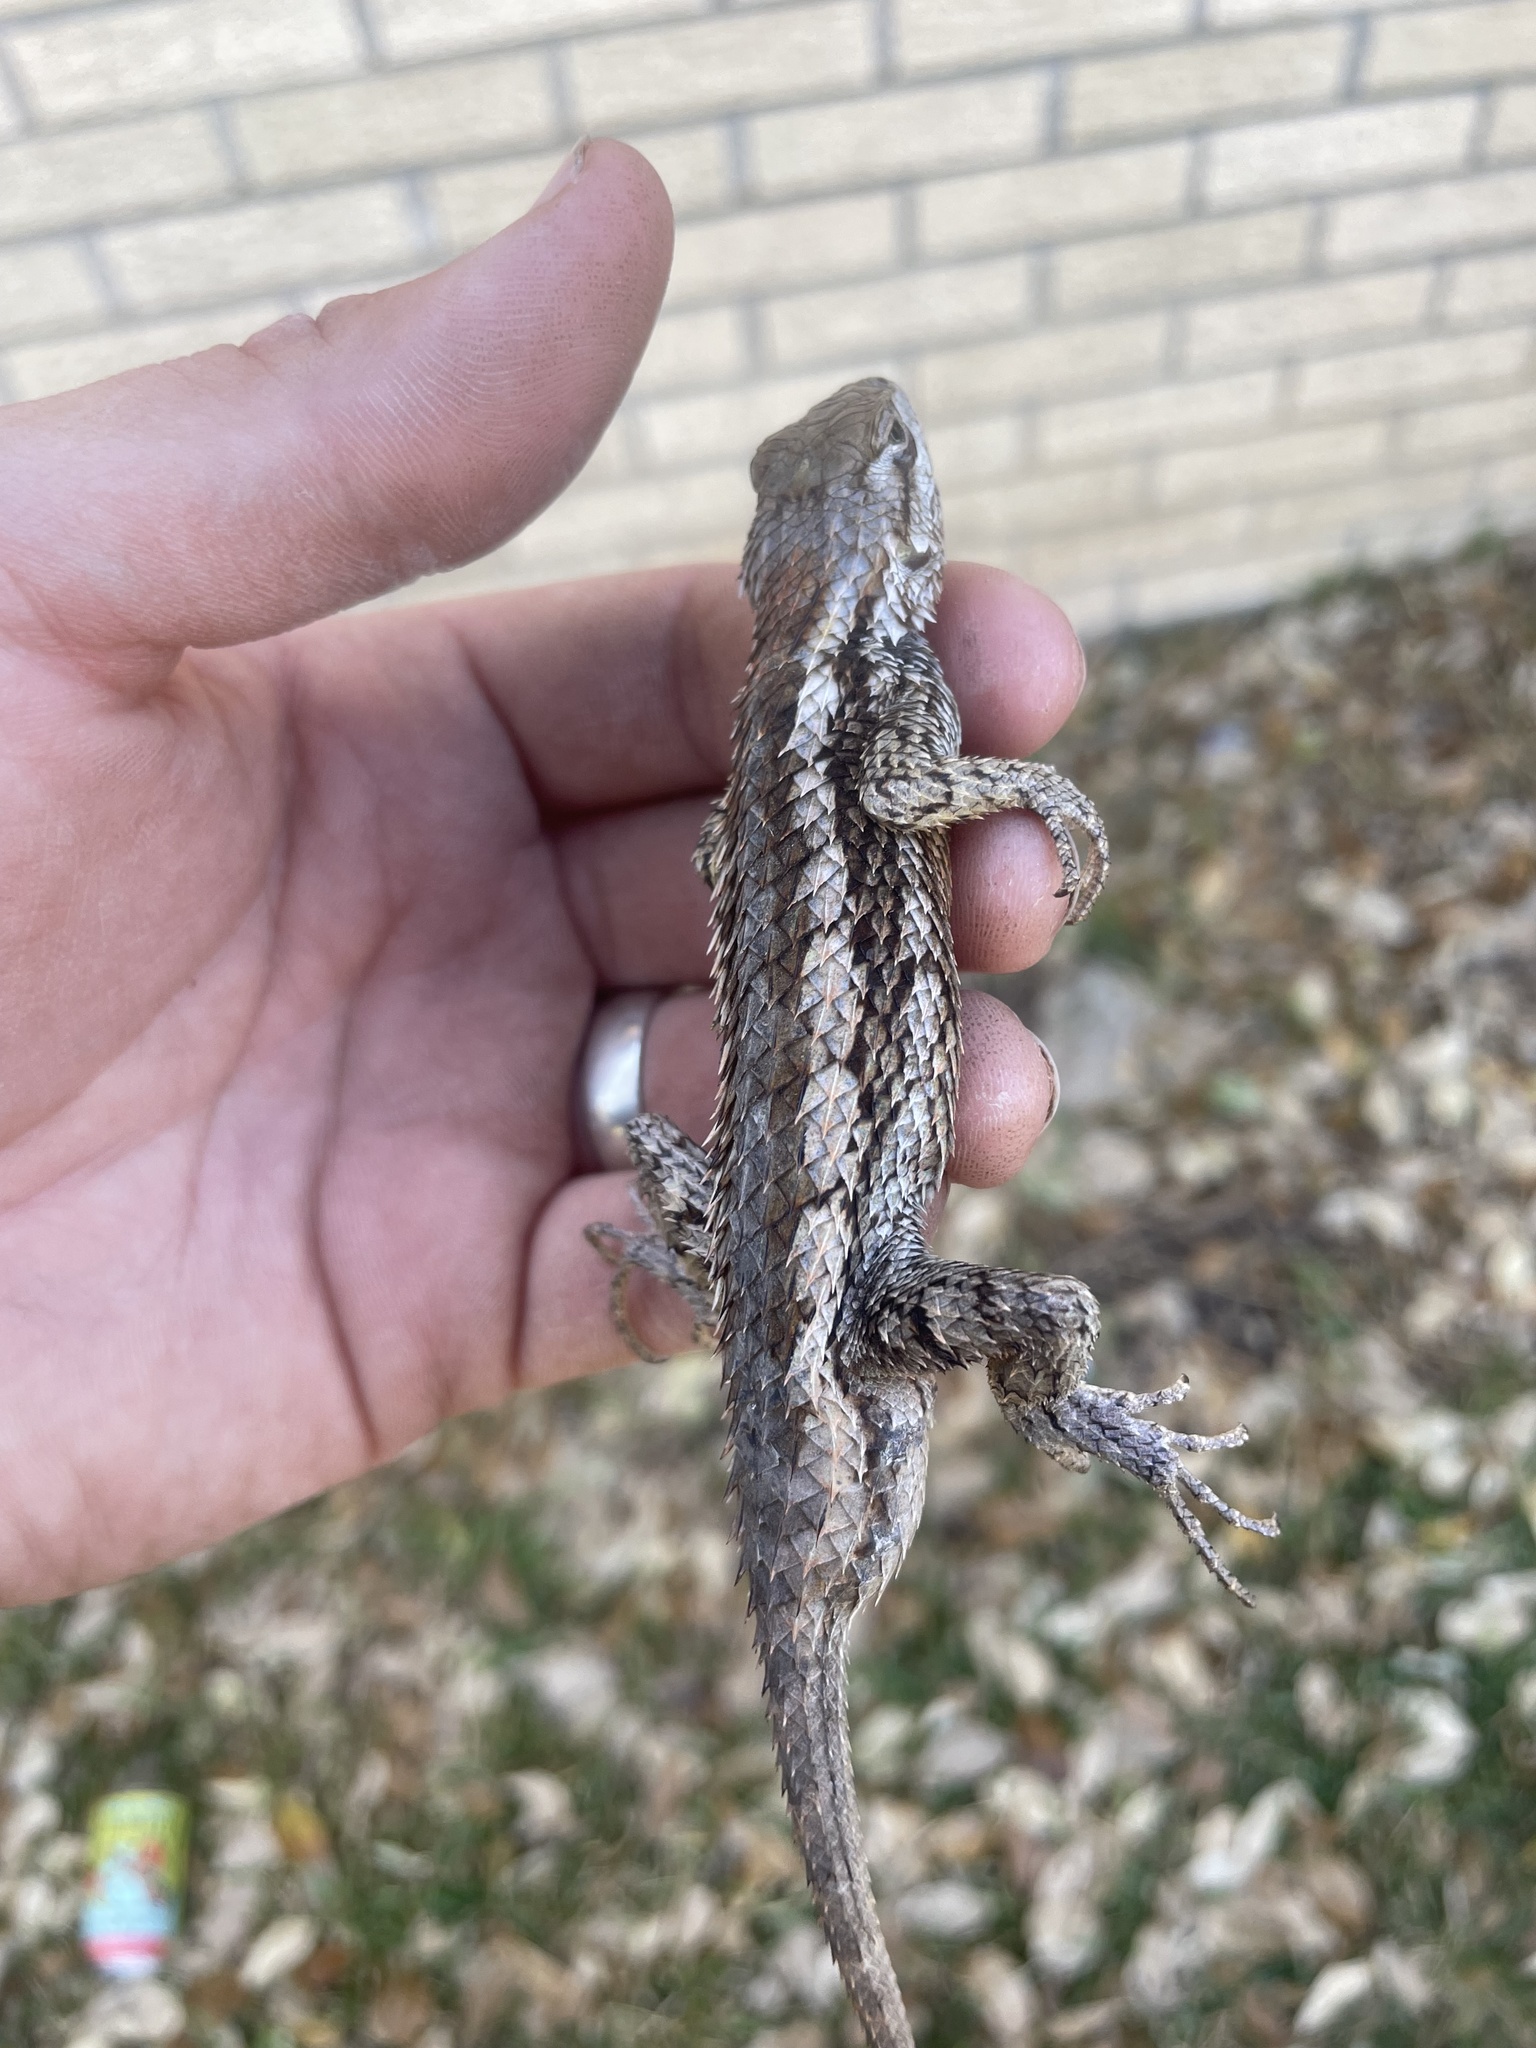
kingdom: Animalia
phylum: Chordata
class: Squamata
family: Phrynosomatidae
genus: Sceloporus
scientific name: Sceloporus olivaceus
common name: Texas spiny lizard
